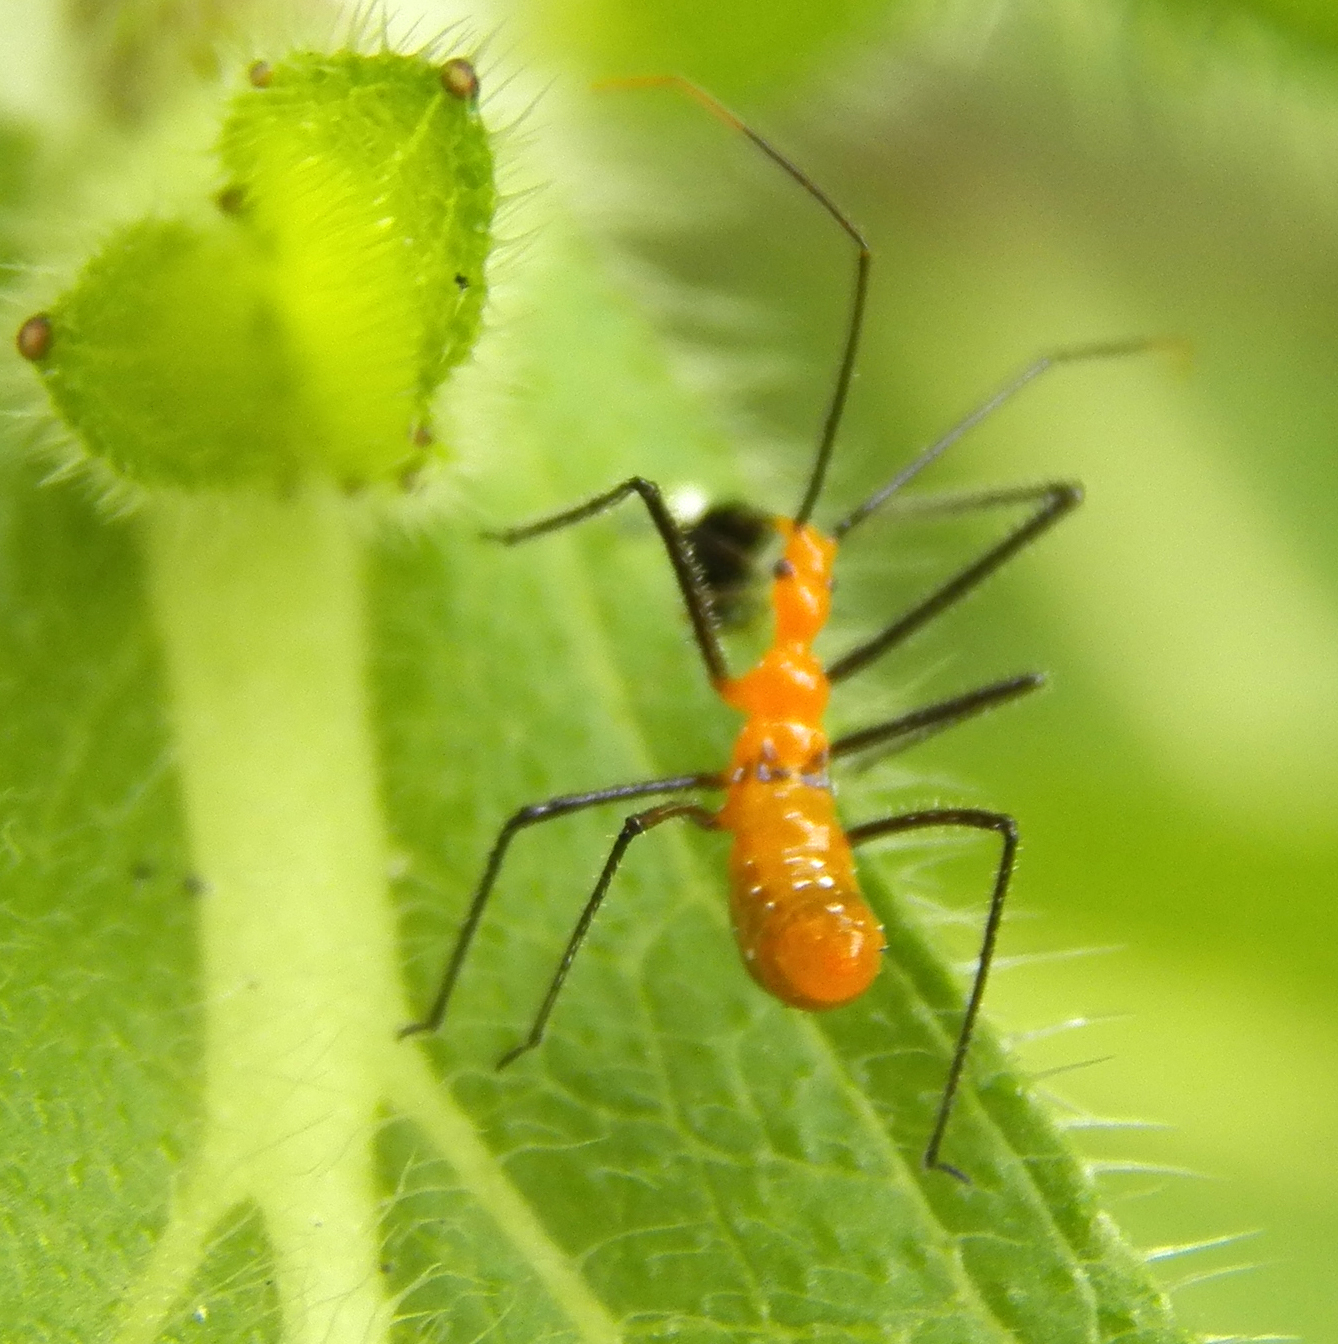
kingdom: Animalia
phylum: Arthropoda
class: Insecta
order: Hemiptera
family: Reduviidae
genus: Zelus
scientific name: Zelus longipes
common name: Milkweed assassin bug
